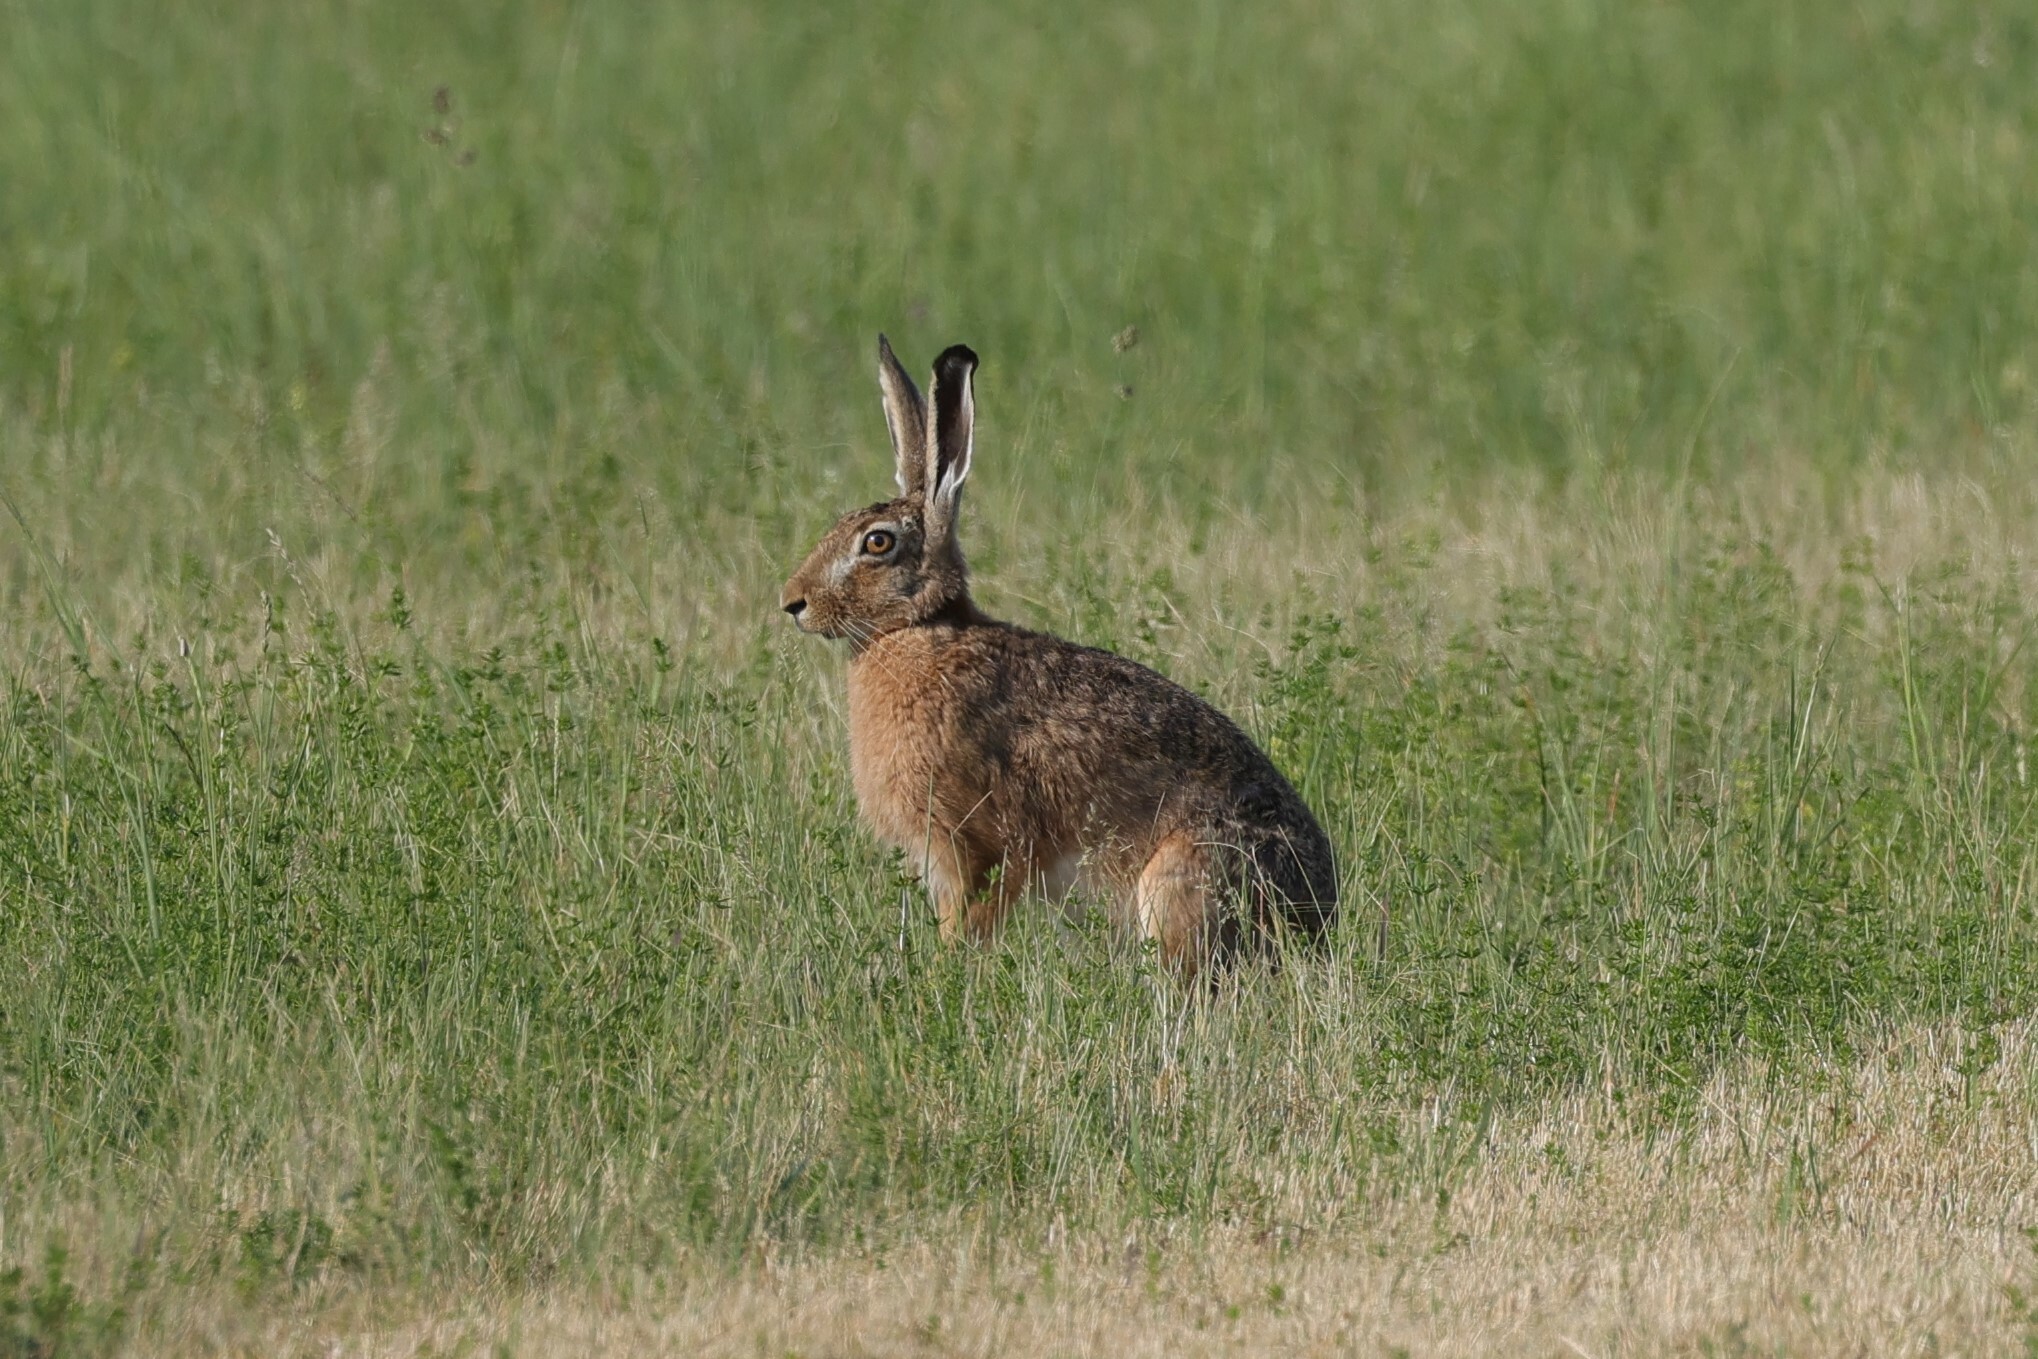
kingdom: Animalia
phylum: Chordata
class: Mammalia
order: Lagomorpha
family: Leporidae
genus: Lepus
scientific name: Lepus europaeus
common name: European hare
